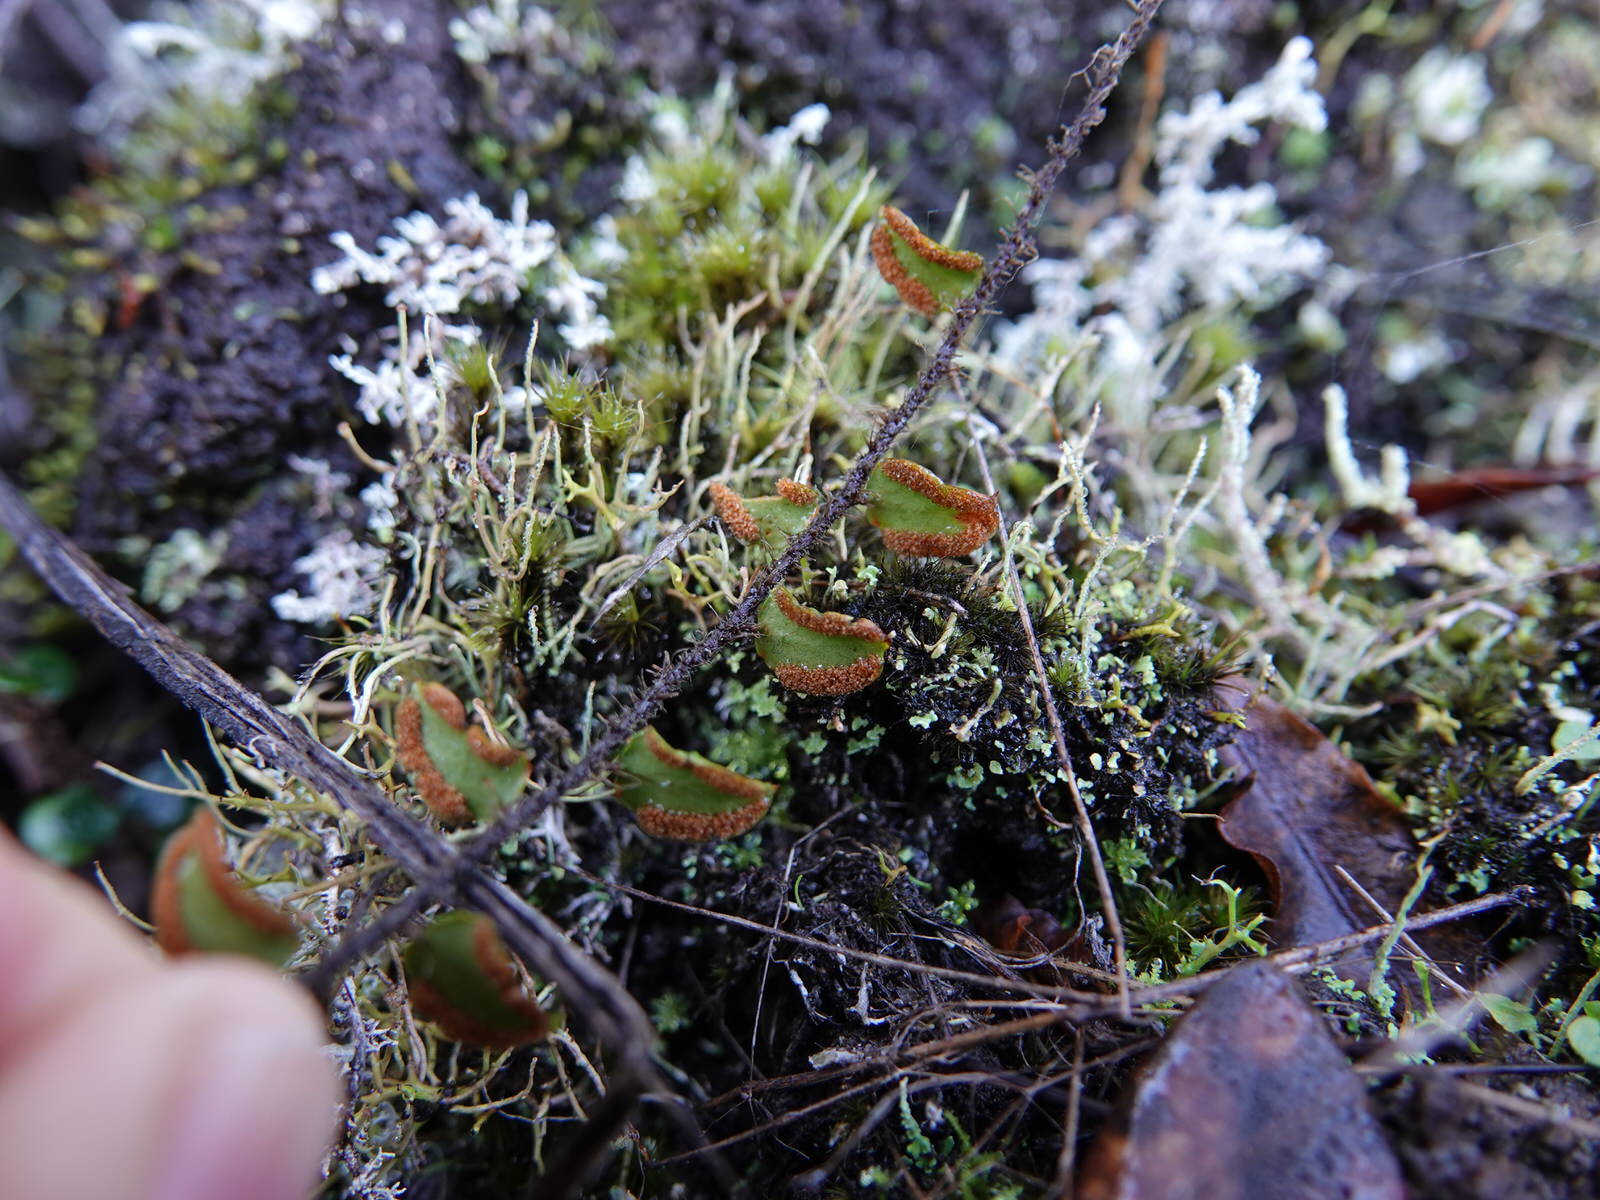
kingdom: Plantae
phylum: Tracheophyta
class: Polypodiopsida
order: Polypodiales
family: Pteridaceae
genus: Pellaea
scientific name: Pellaea rotundifolia
